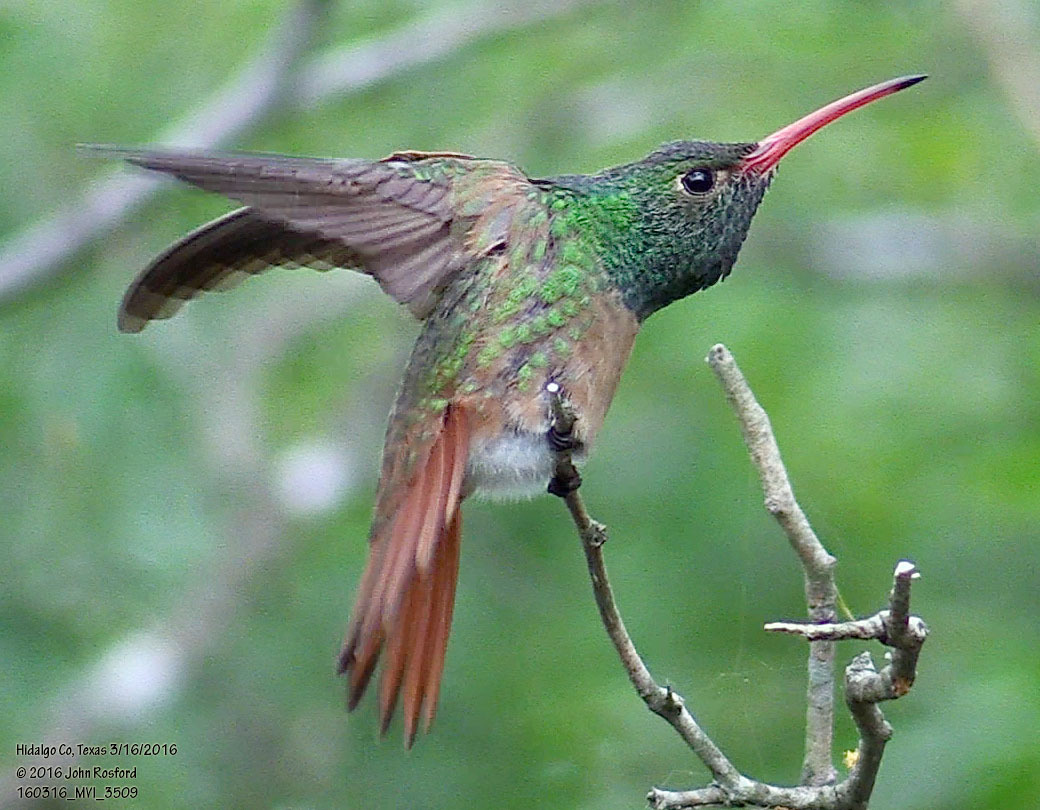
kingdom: Animalia
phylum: Chordata
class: Aves
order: Apodiformes
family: Trochilidae
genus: Amazilia
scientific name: Amazilia yucatanensis
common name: Buff-bellied hummingbird
